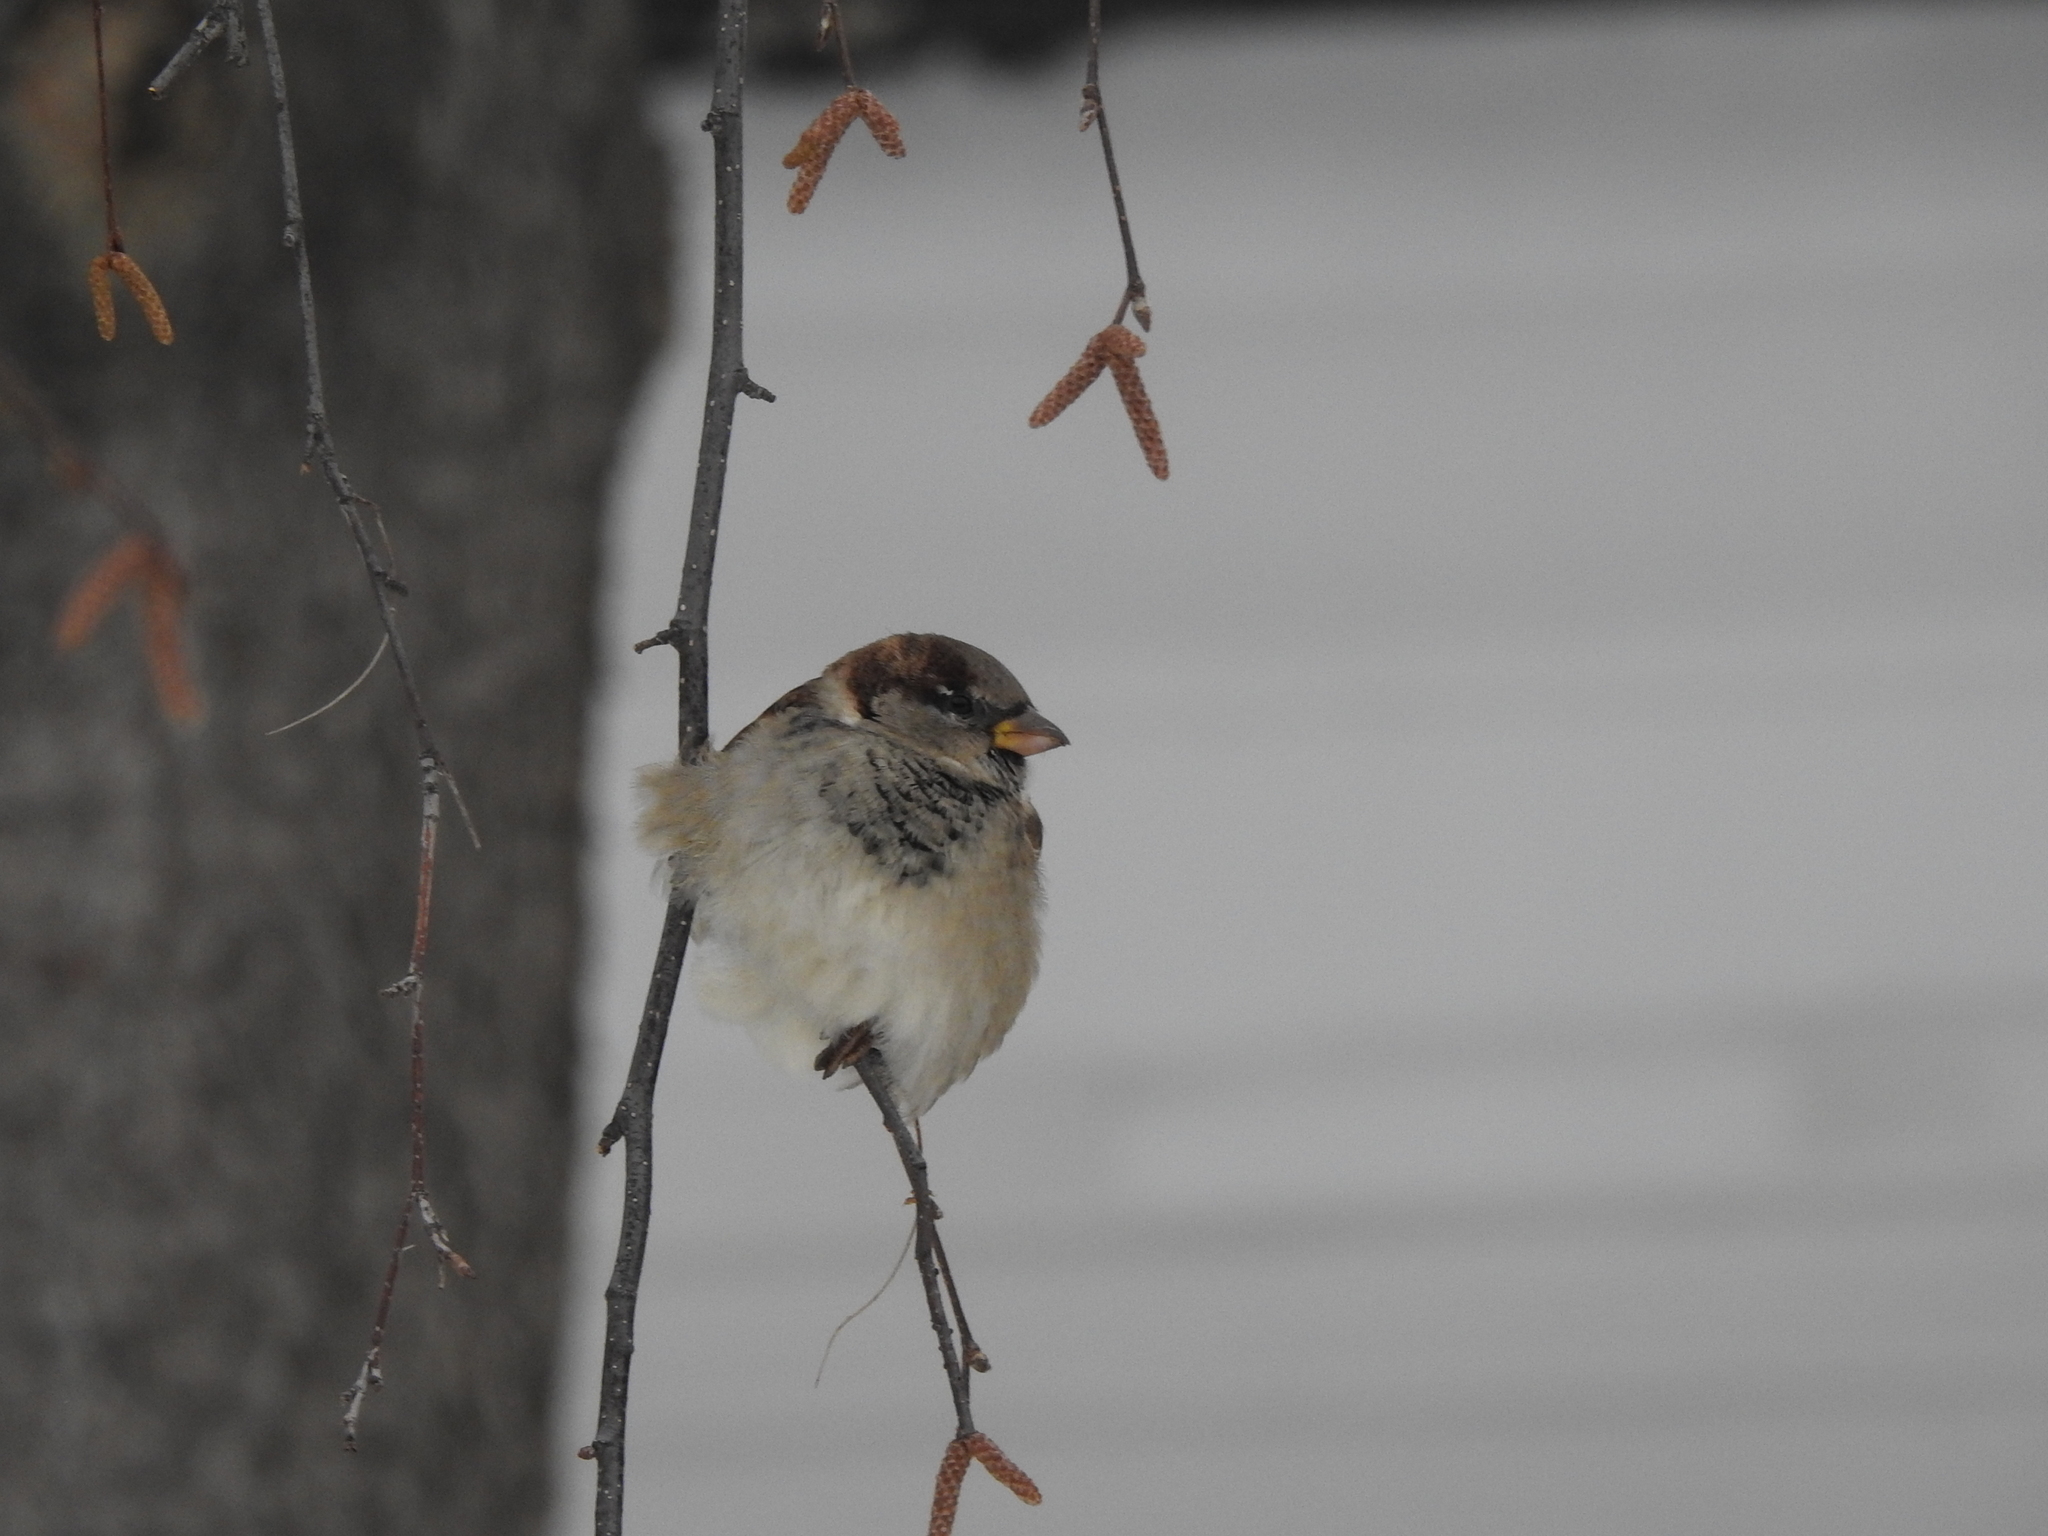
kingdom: Animalia
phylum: Chordata
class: Aves
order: Passeriformes
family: Passeridae
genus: Passer
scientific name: Passer domesticus
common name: House sparrow
